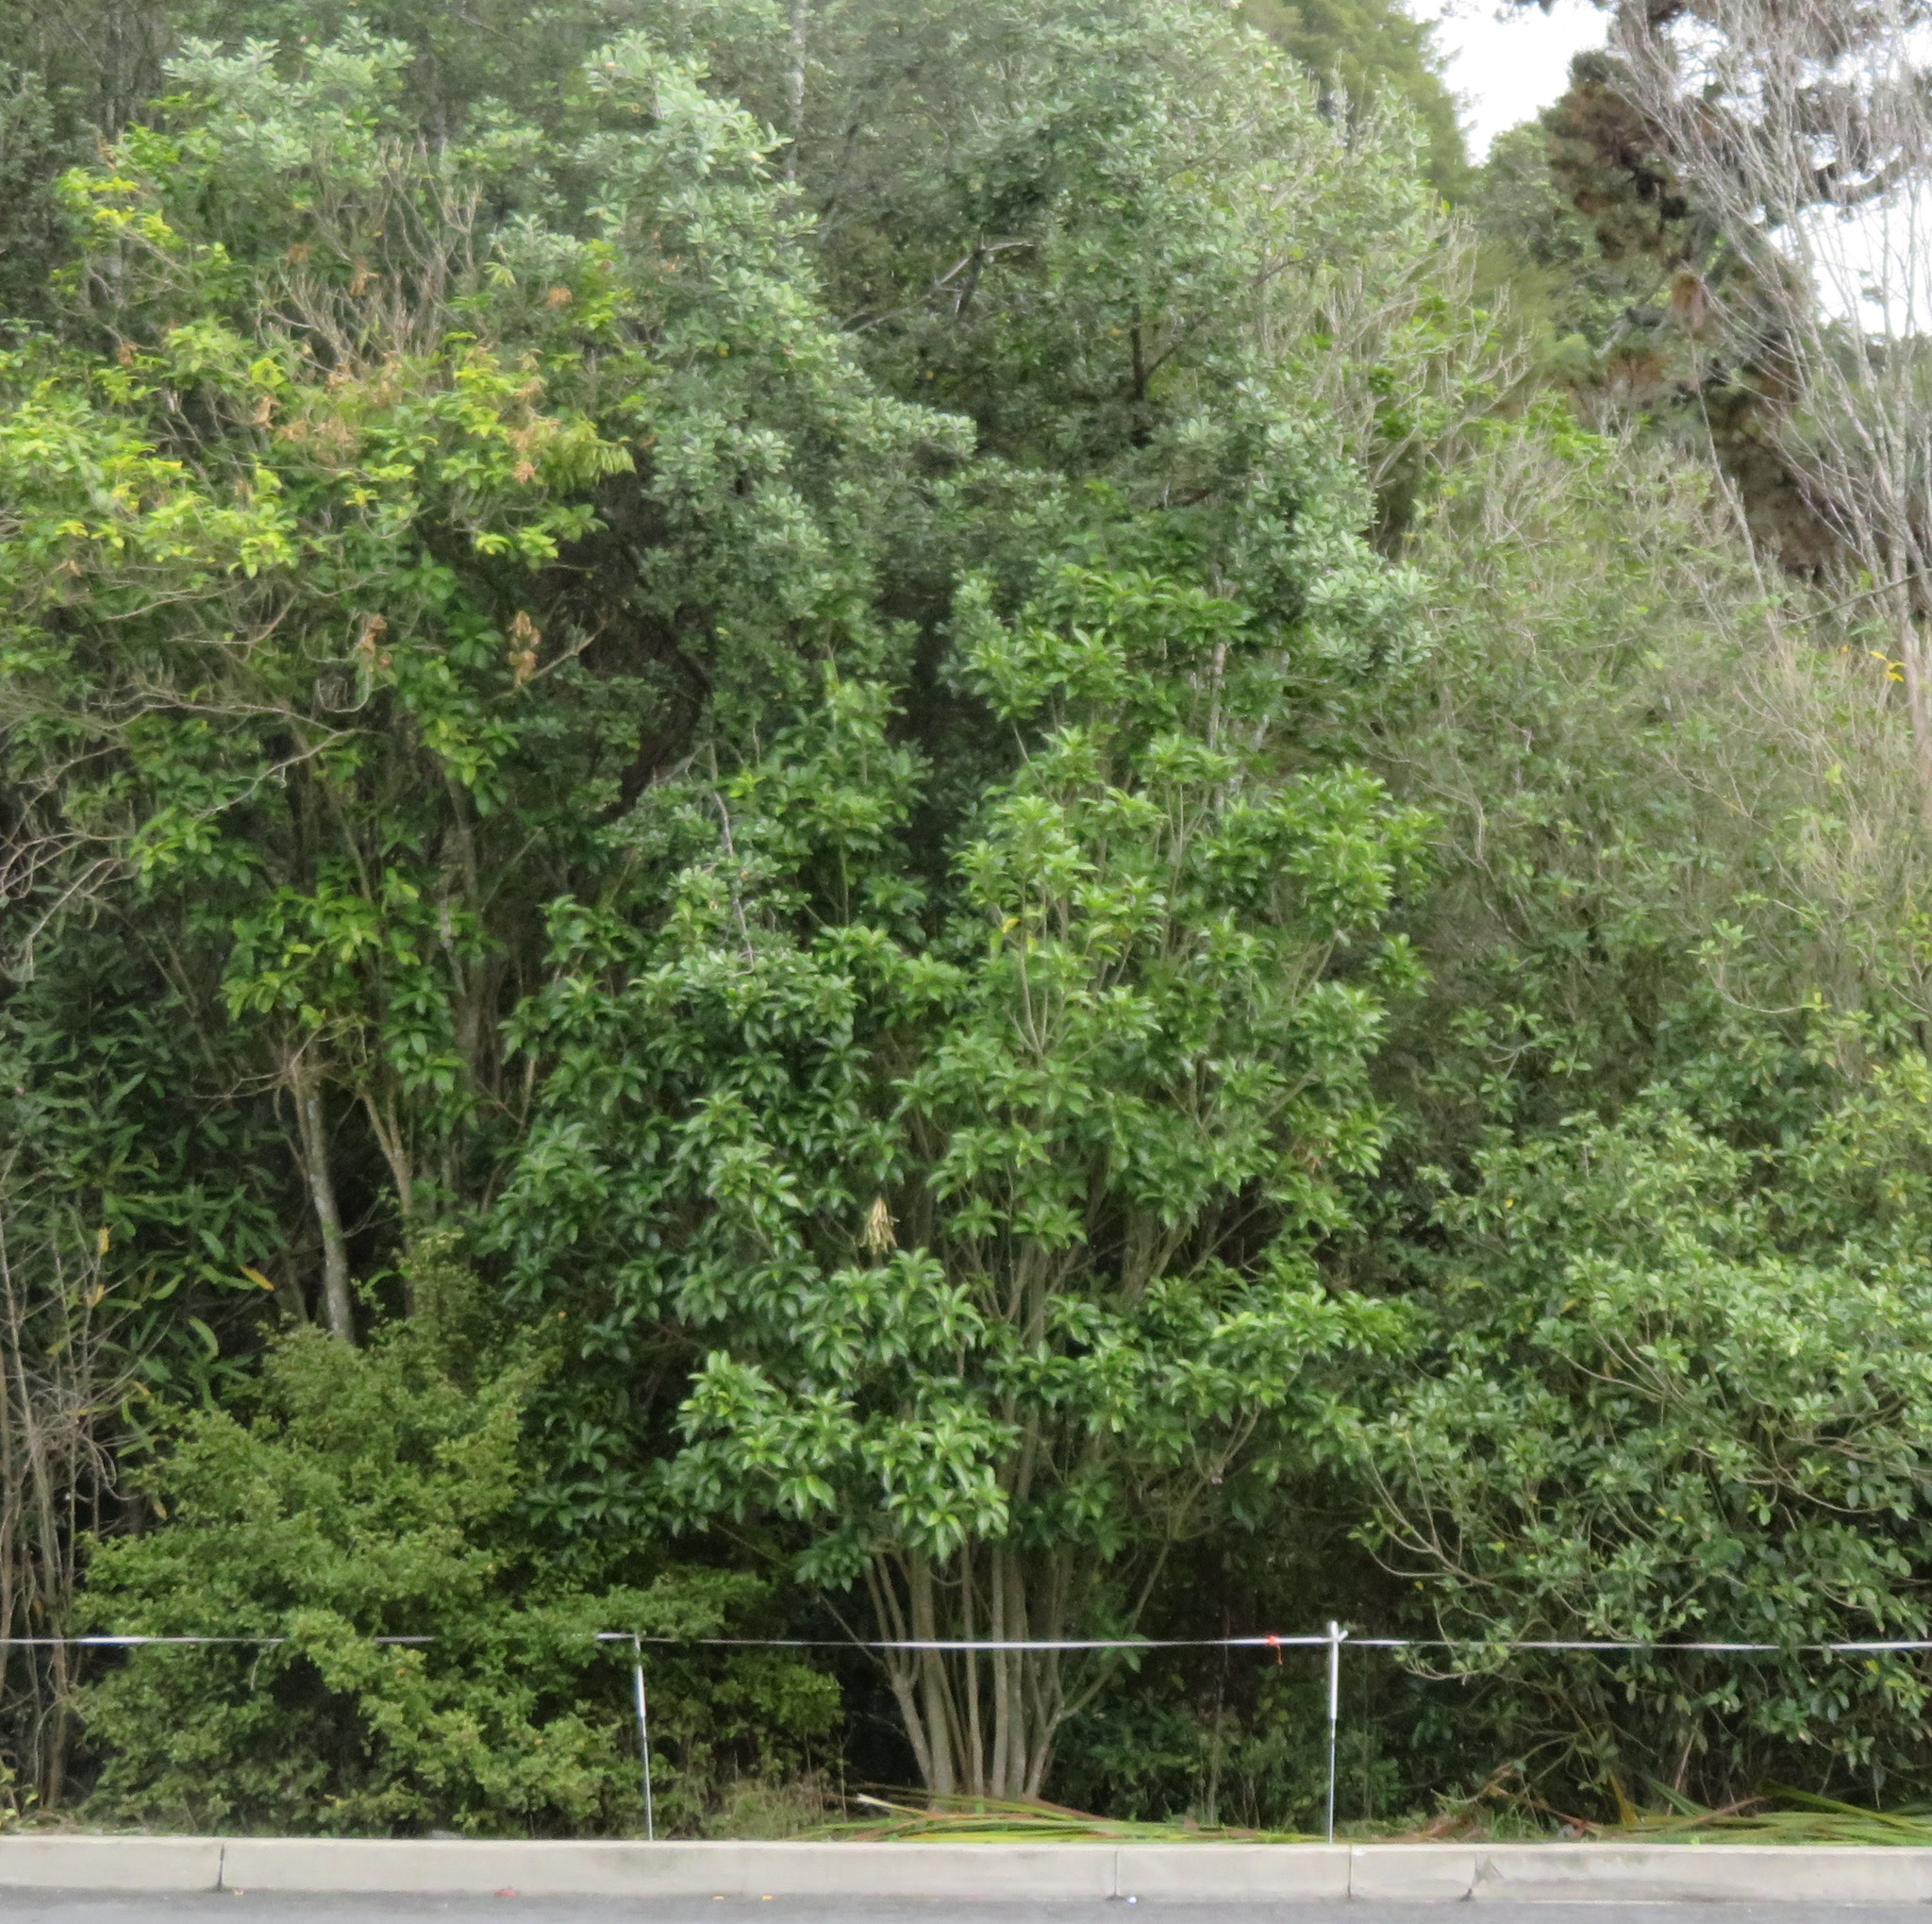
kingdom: Plantae
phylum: Tracheophyta
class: Magnoliopsida
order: Malpighiales
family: Violaceae
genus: Melicytus
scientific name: Melicytus ramiflorus
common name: Mahoe
